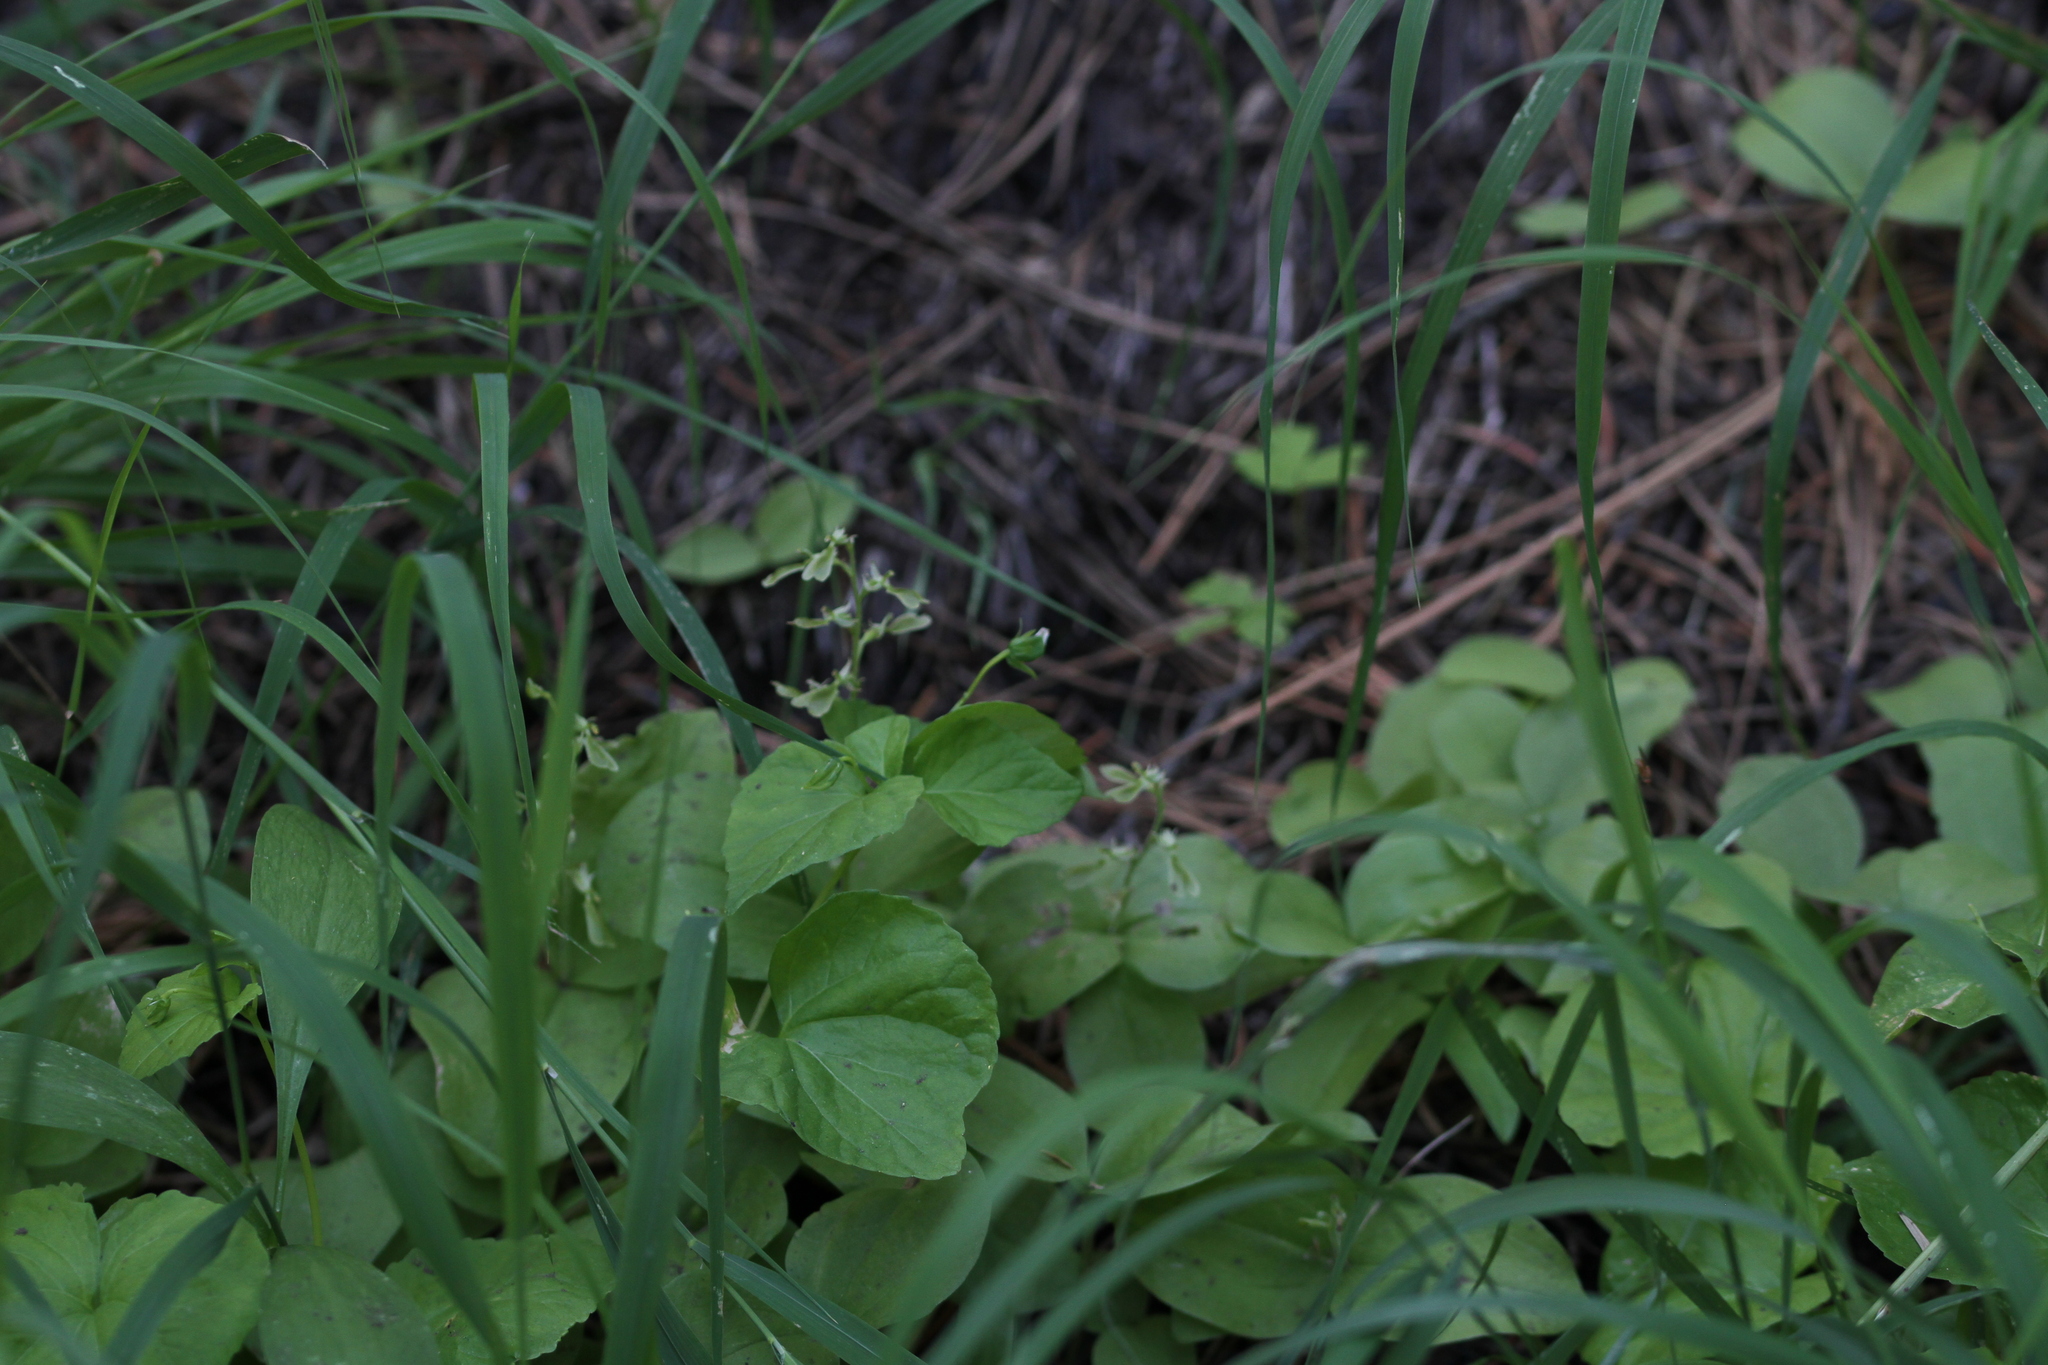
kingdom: Plantae
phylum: Tracheophyta
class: Liliopsida
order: Asparagales
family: Orchidaceae
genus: Neottia
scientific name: Neottia convallarioides
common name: Broadleaf twayblade
